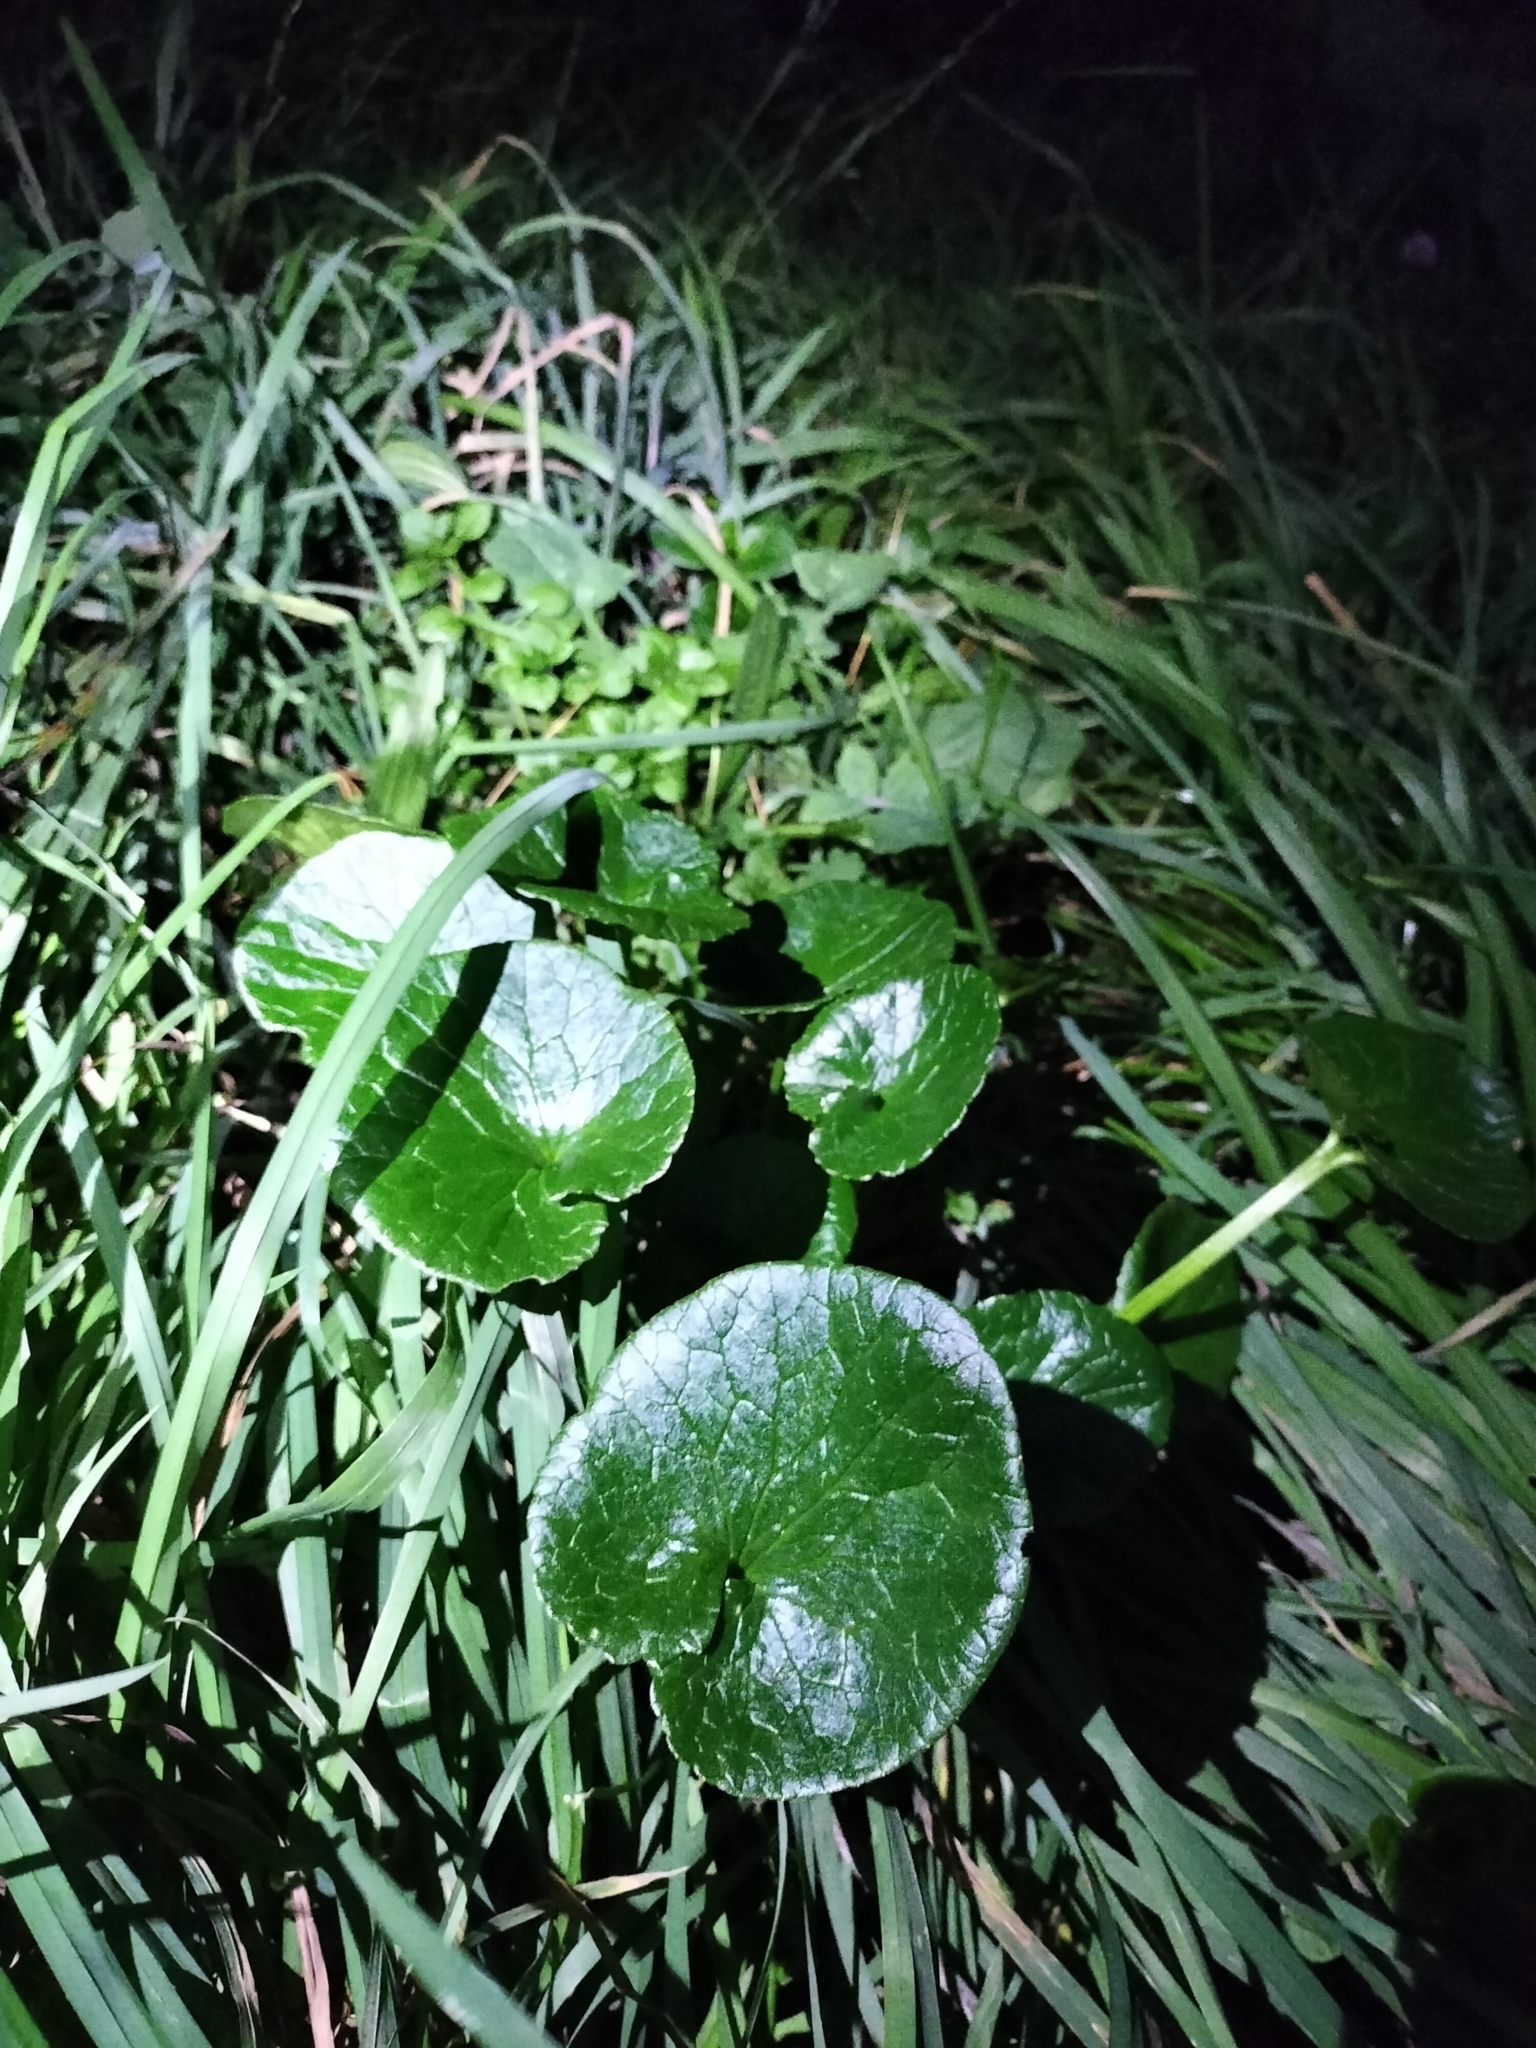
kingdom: Plantae
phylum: Tracheophyta
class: Magnoliopsida
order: Ranunculales
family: Ranunculaceae
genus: Ficaria
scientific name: Ficaria verna
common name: Lesser celandine
